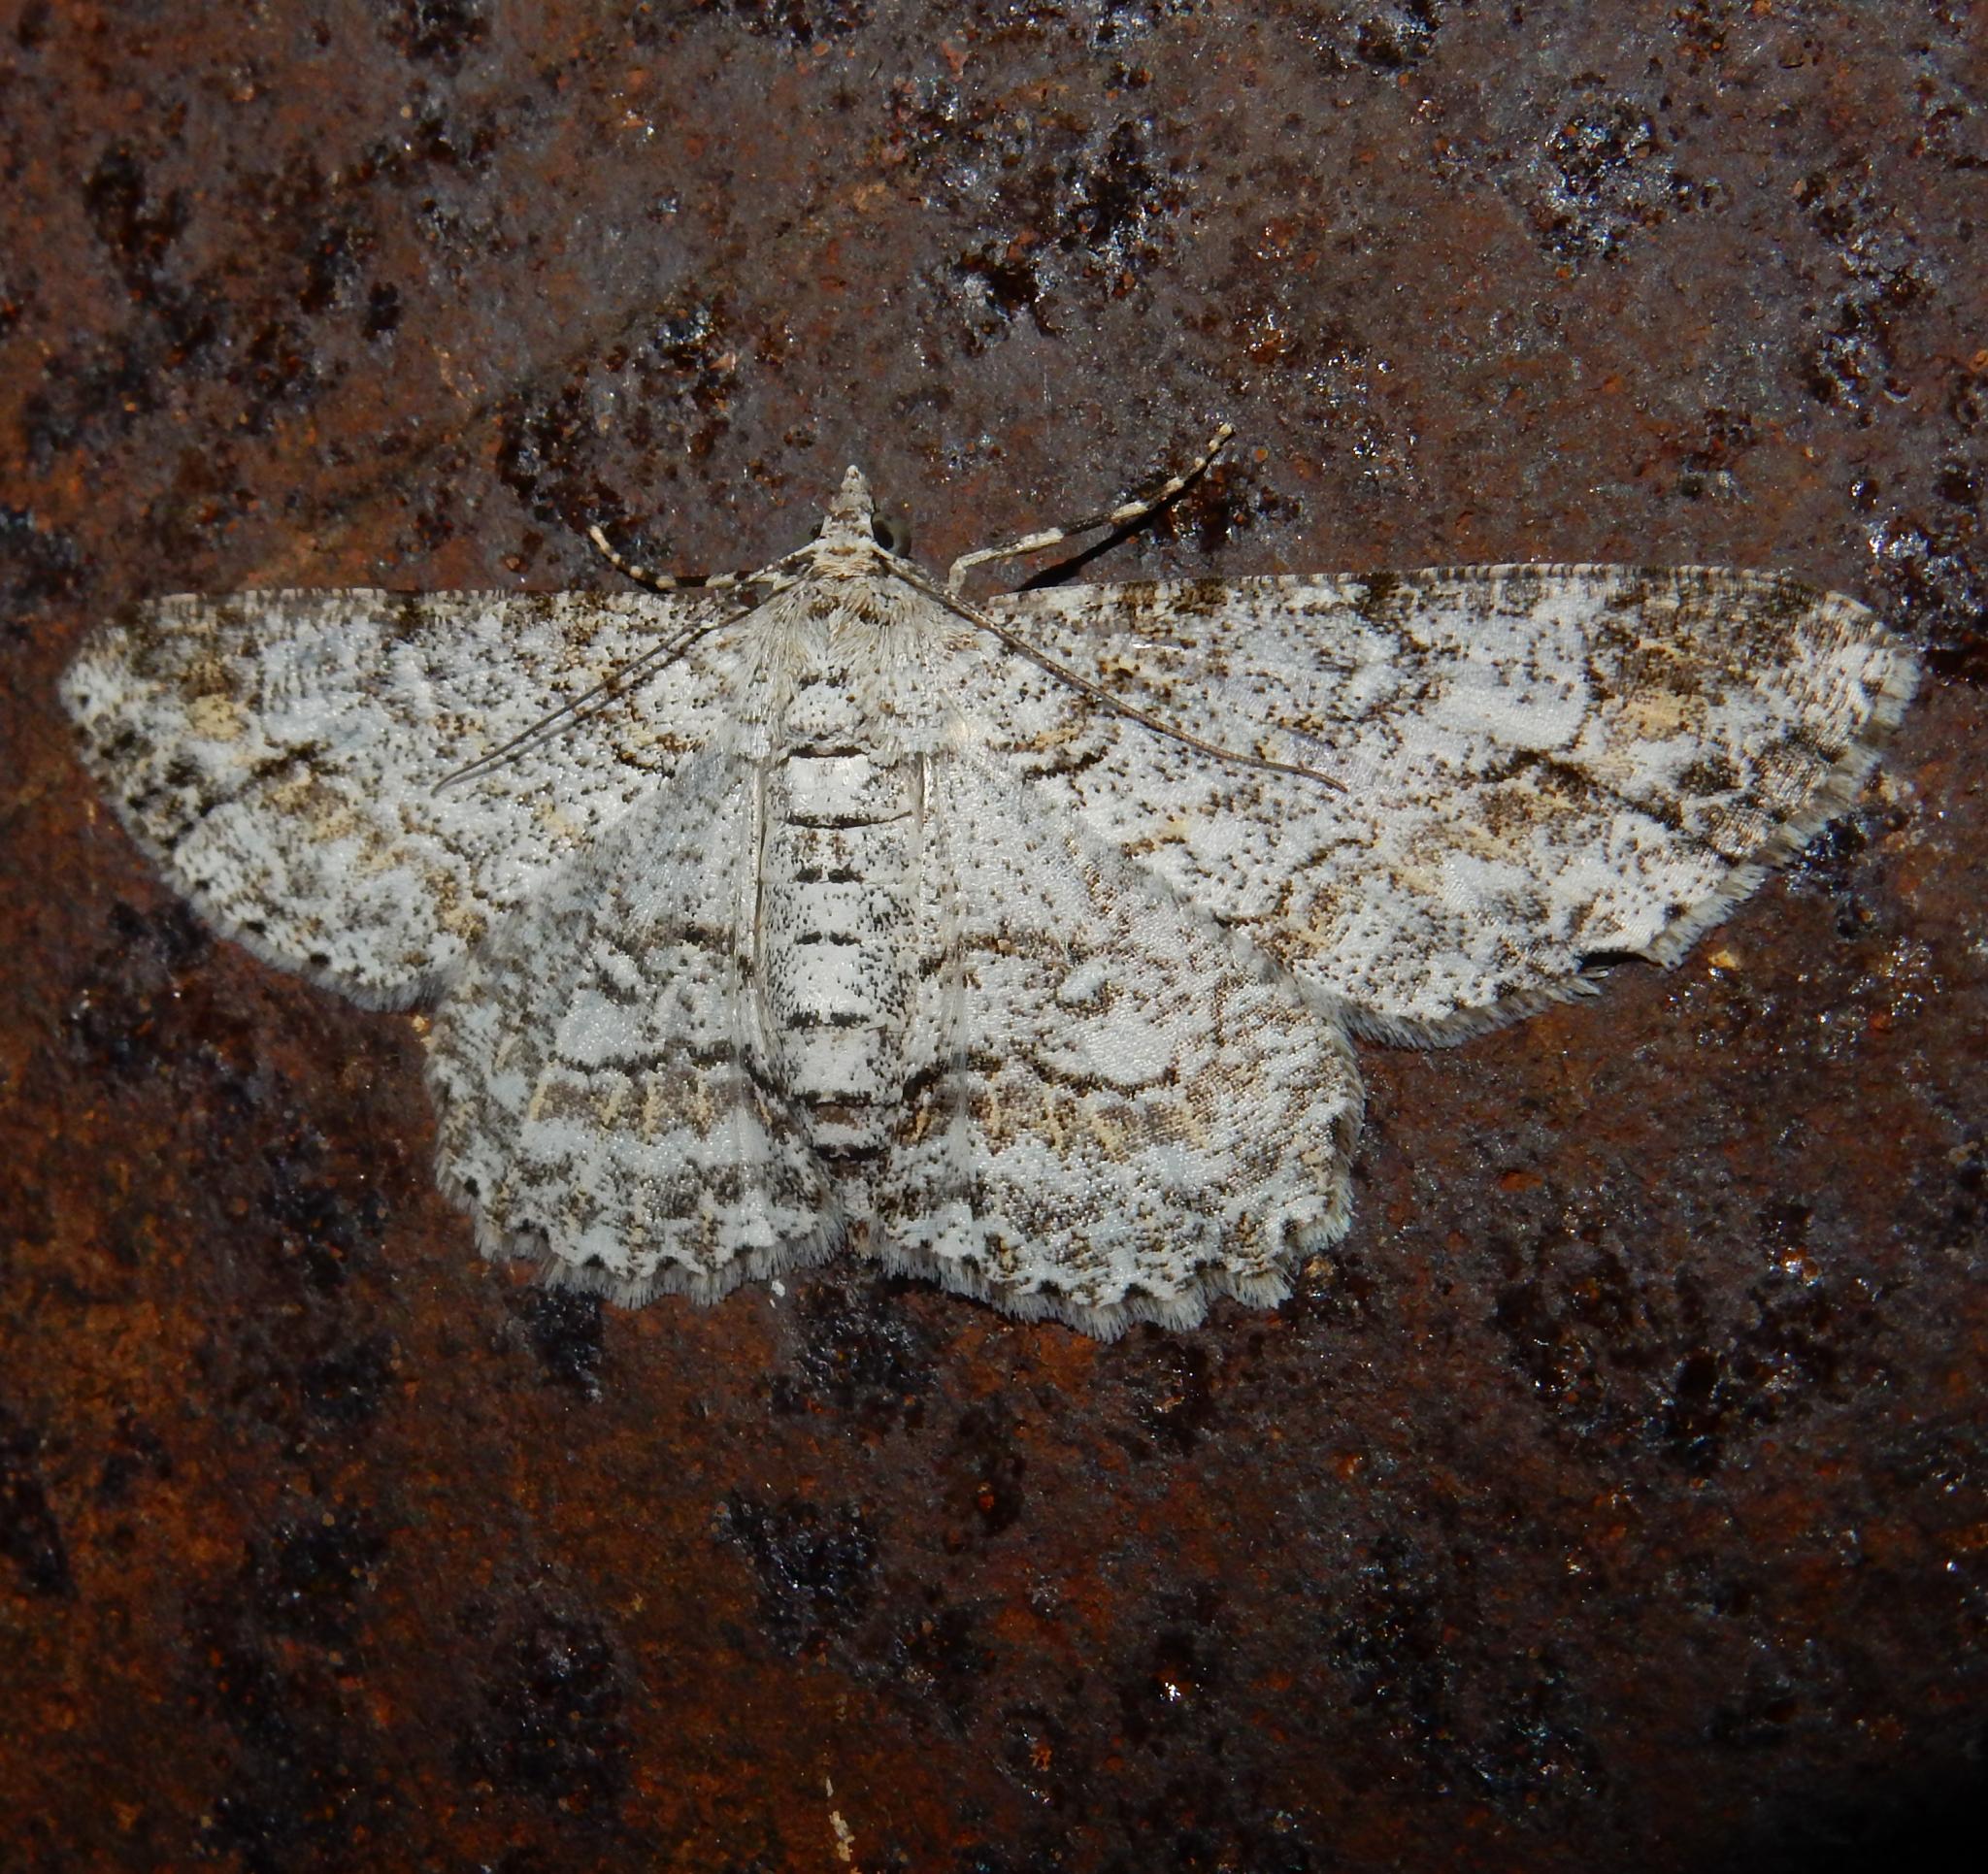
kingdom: Animalia
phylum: Arthropoda
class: Insecta
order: Lepidoptera
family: Geometridae
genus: Ectropis
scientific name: Ectropis spoliataria
